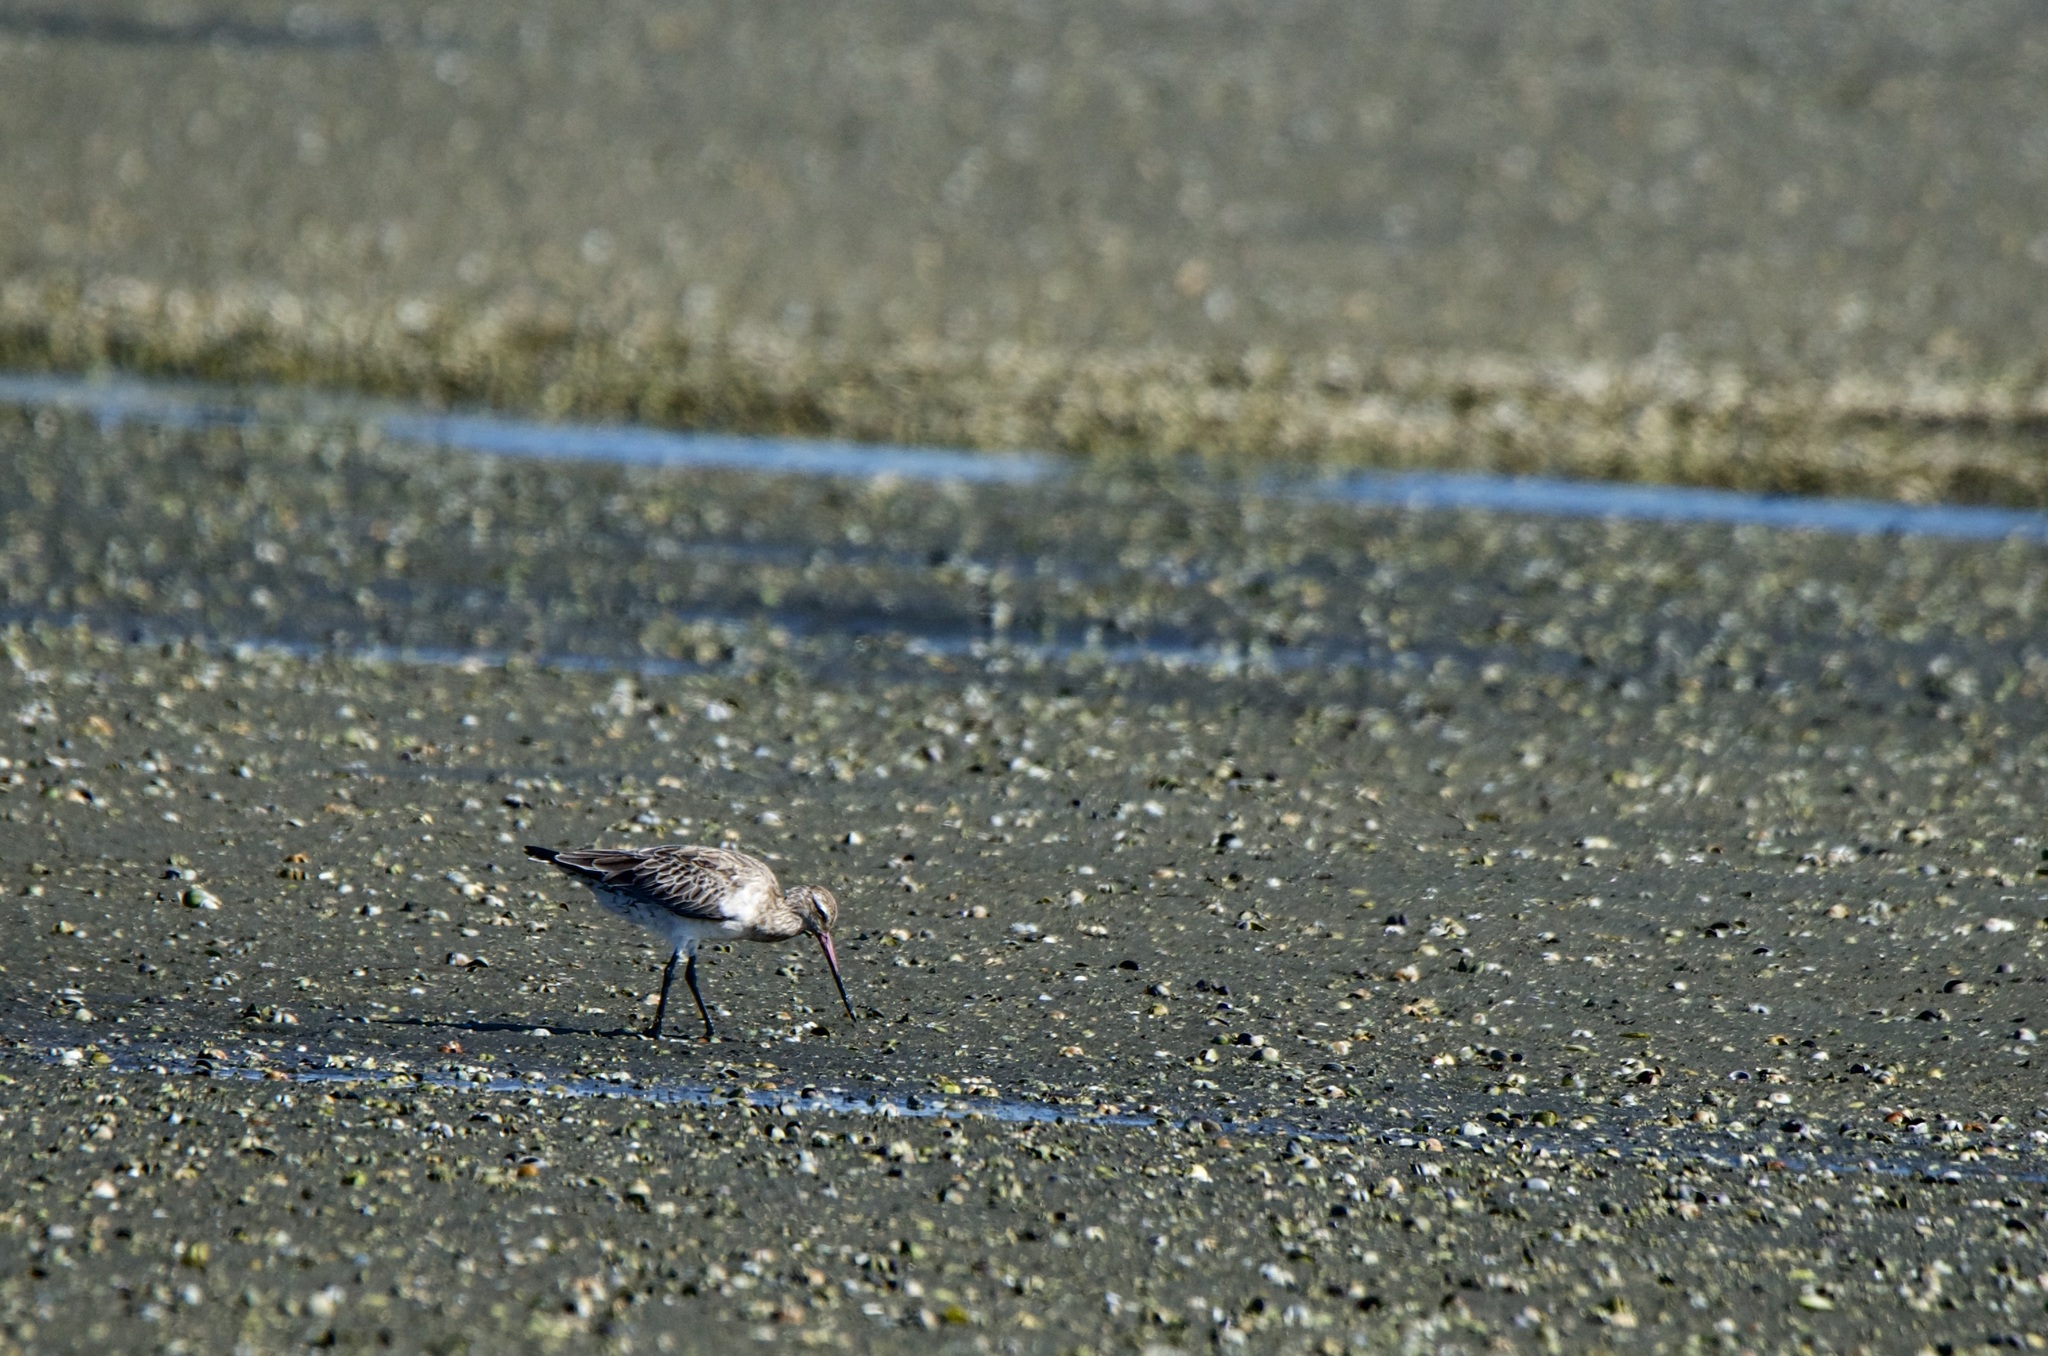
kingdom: Animalia
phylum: Chordata
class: Aves
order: Charadriiformes
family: Scolopacidae
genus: Limosa
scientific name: Limosa lapponica
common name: Bar-tailed godwit
